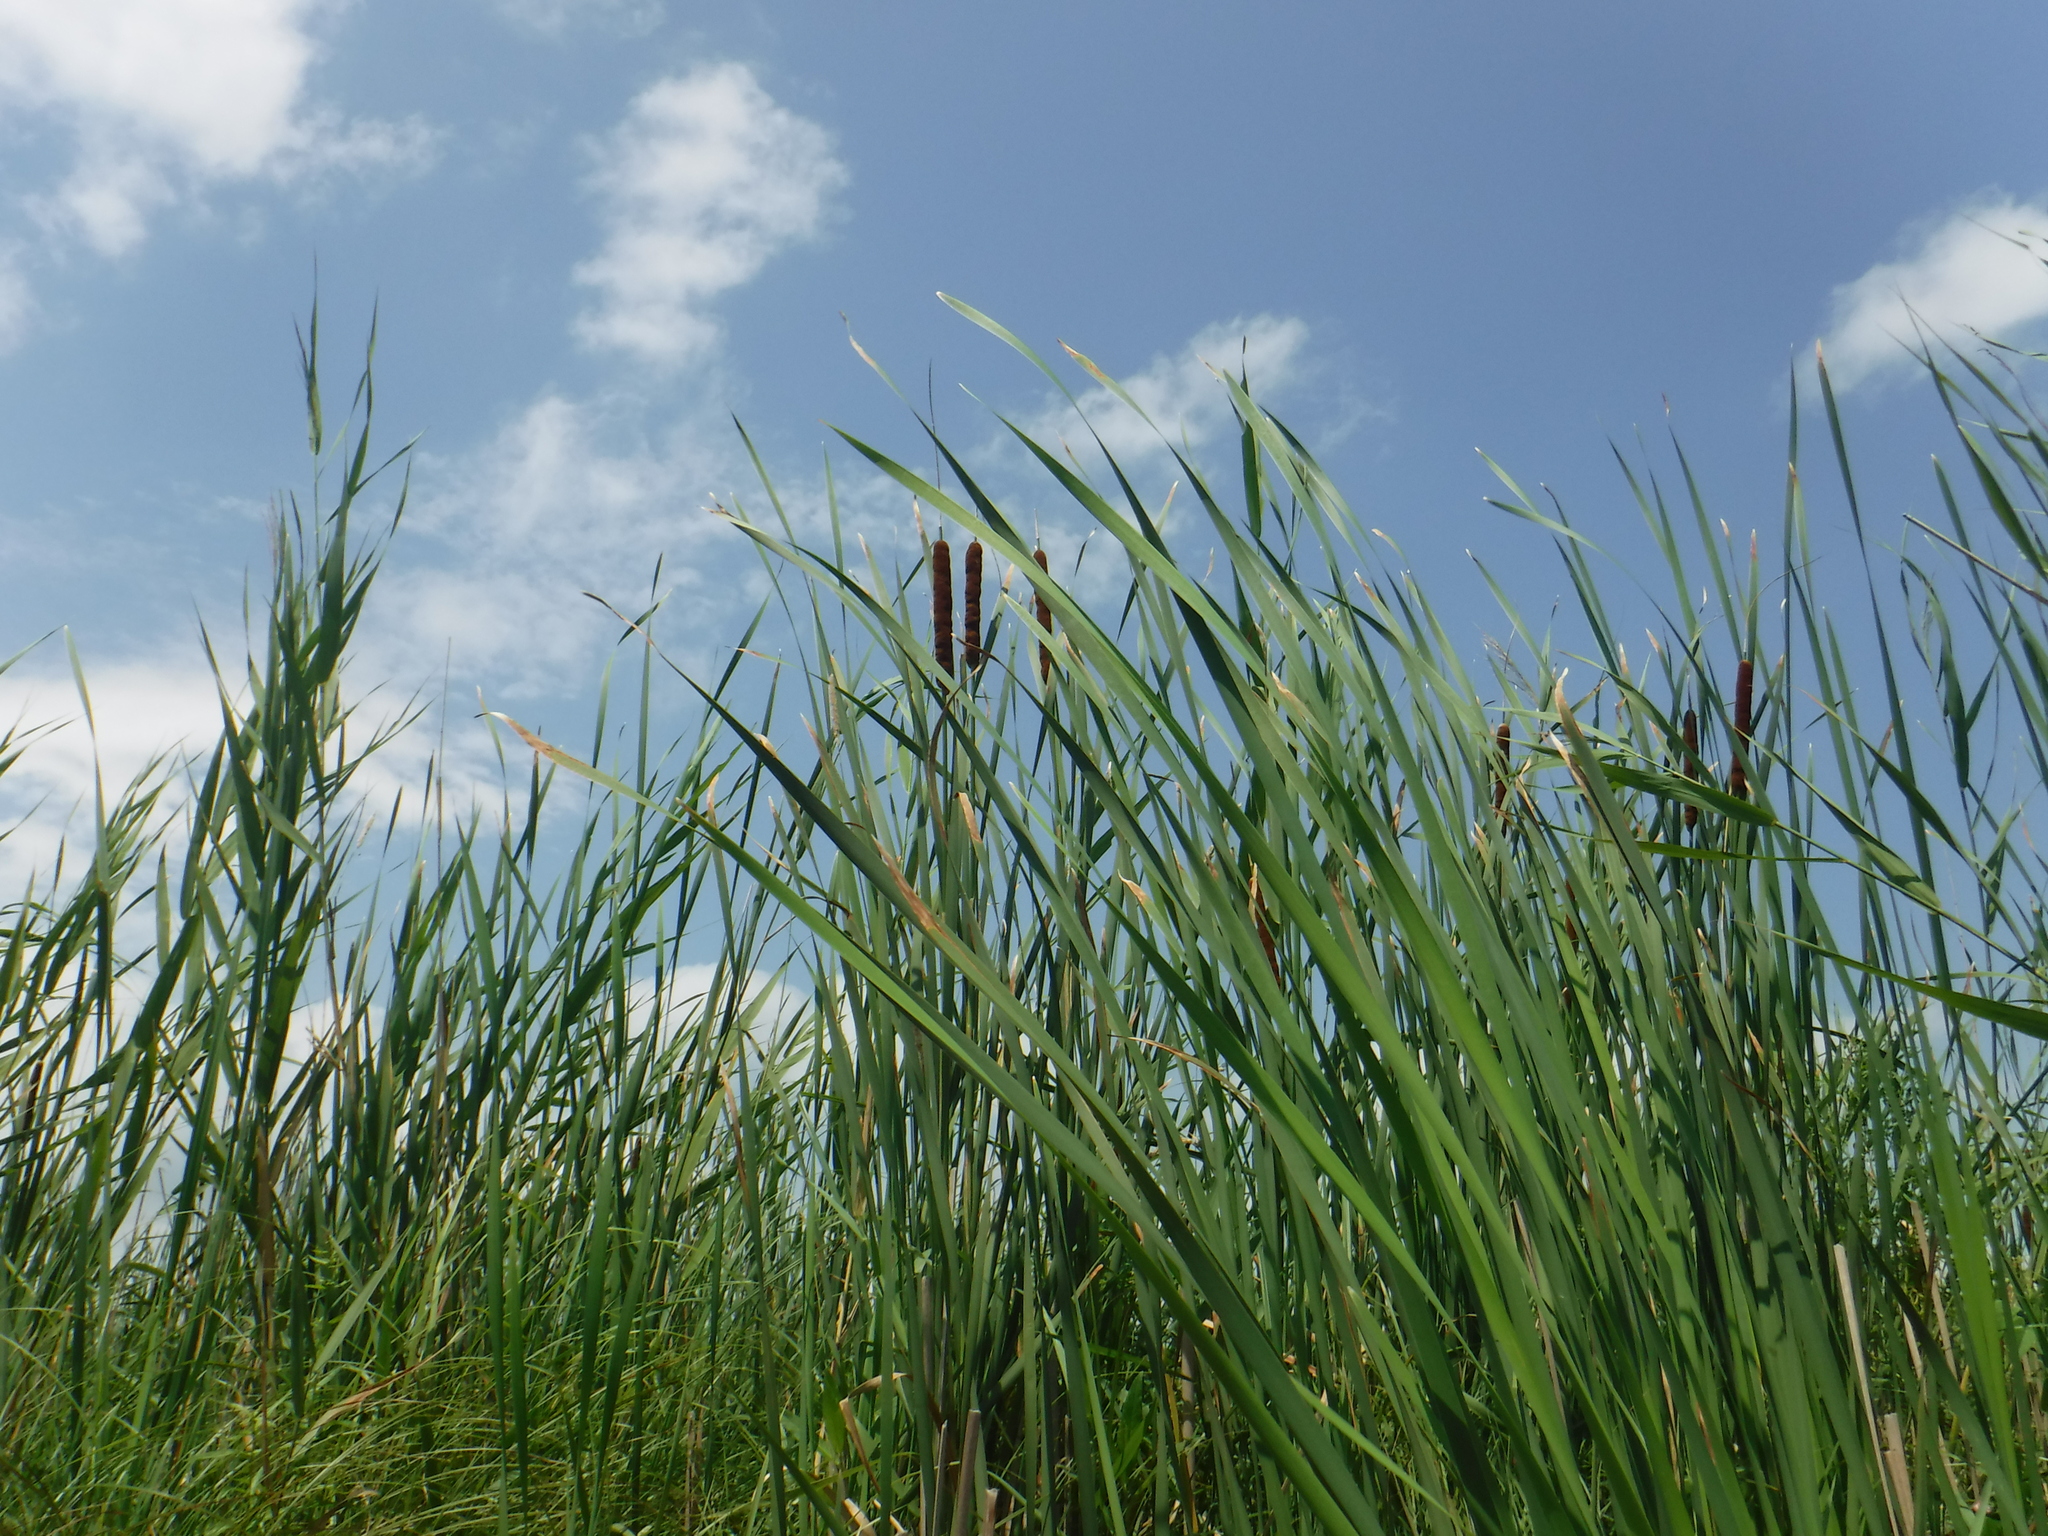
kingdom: Plantae
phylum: Tracheophyta
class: Liliopsida
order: Poales
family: Typhaceae
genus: Typha
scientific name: Typha
